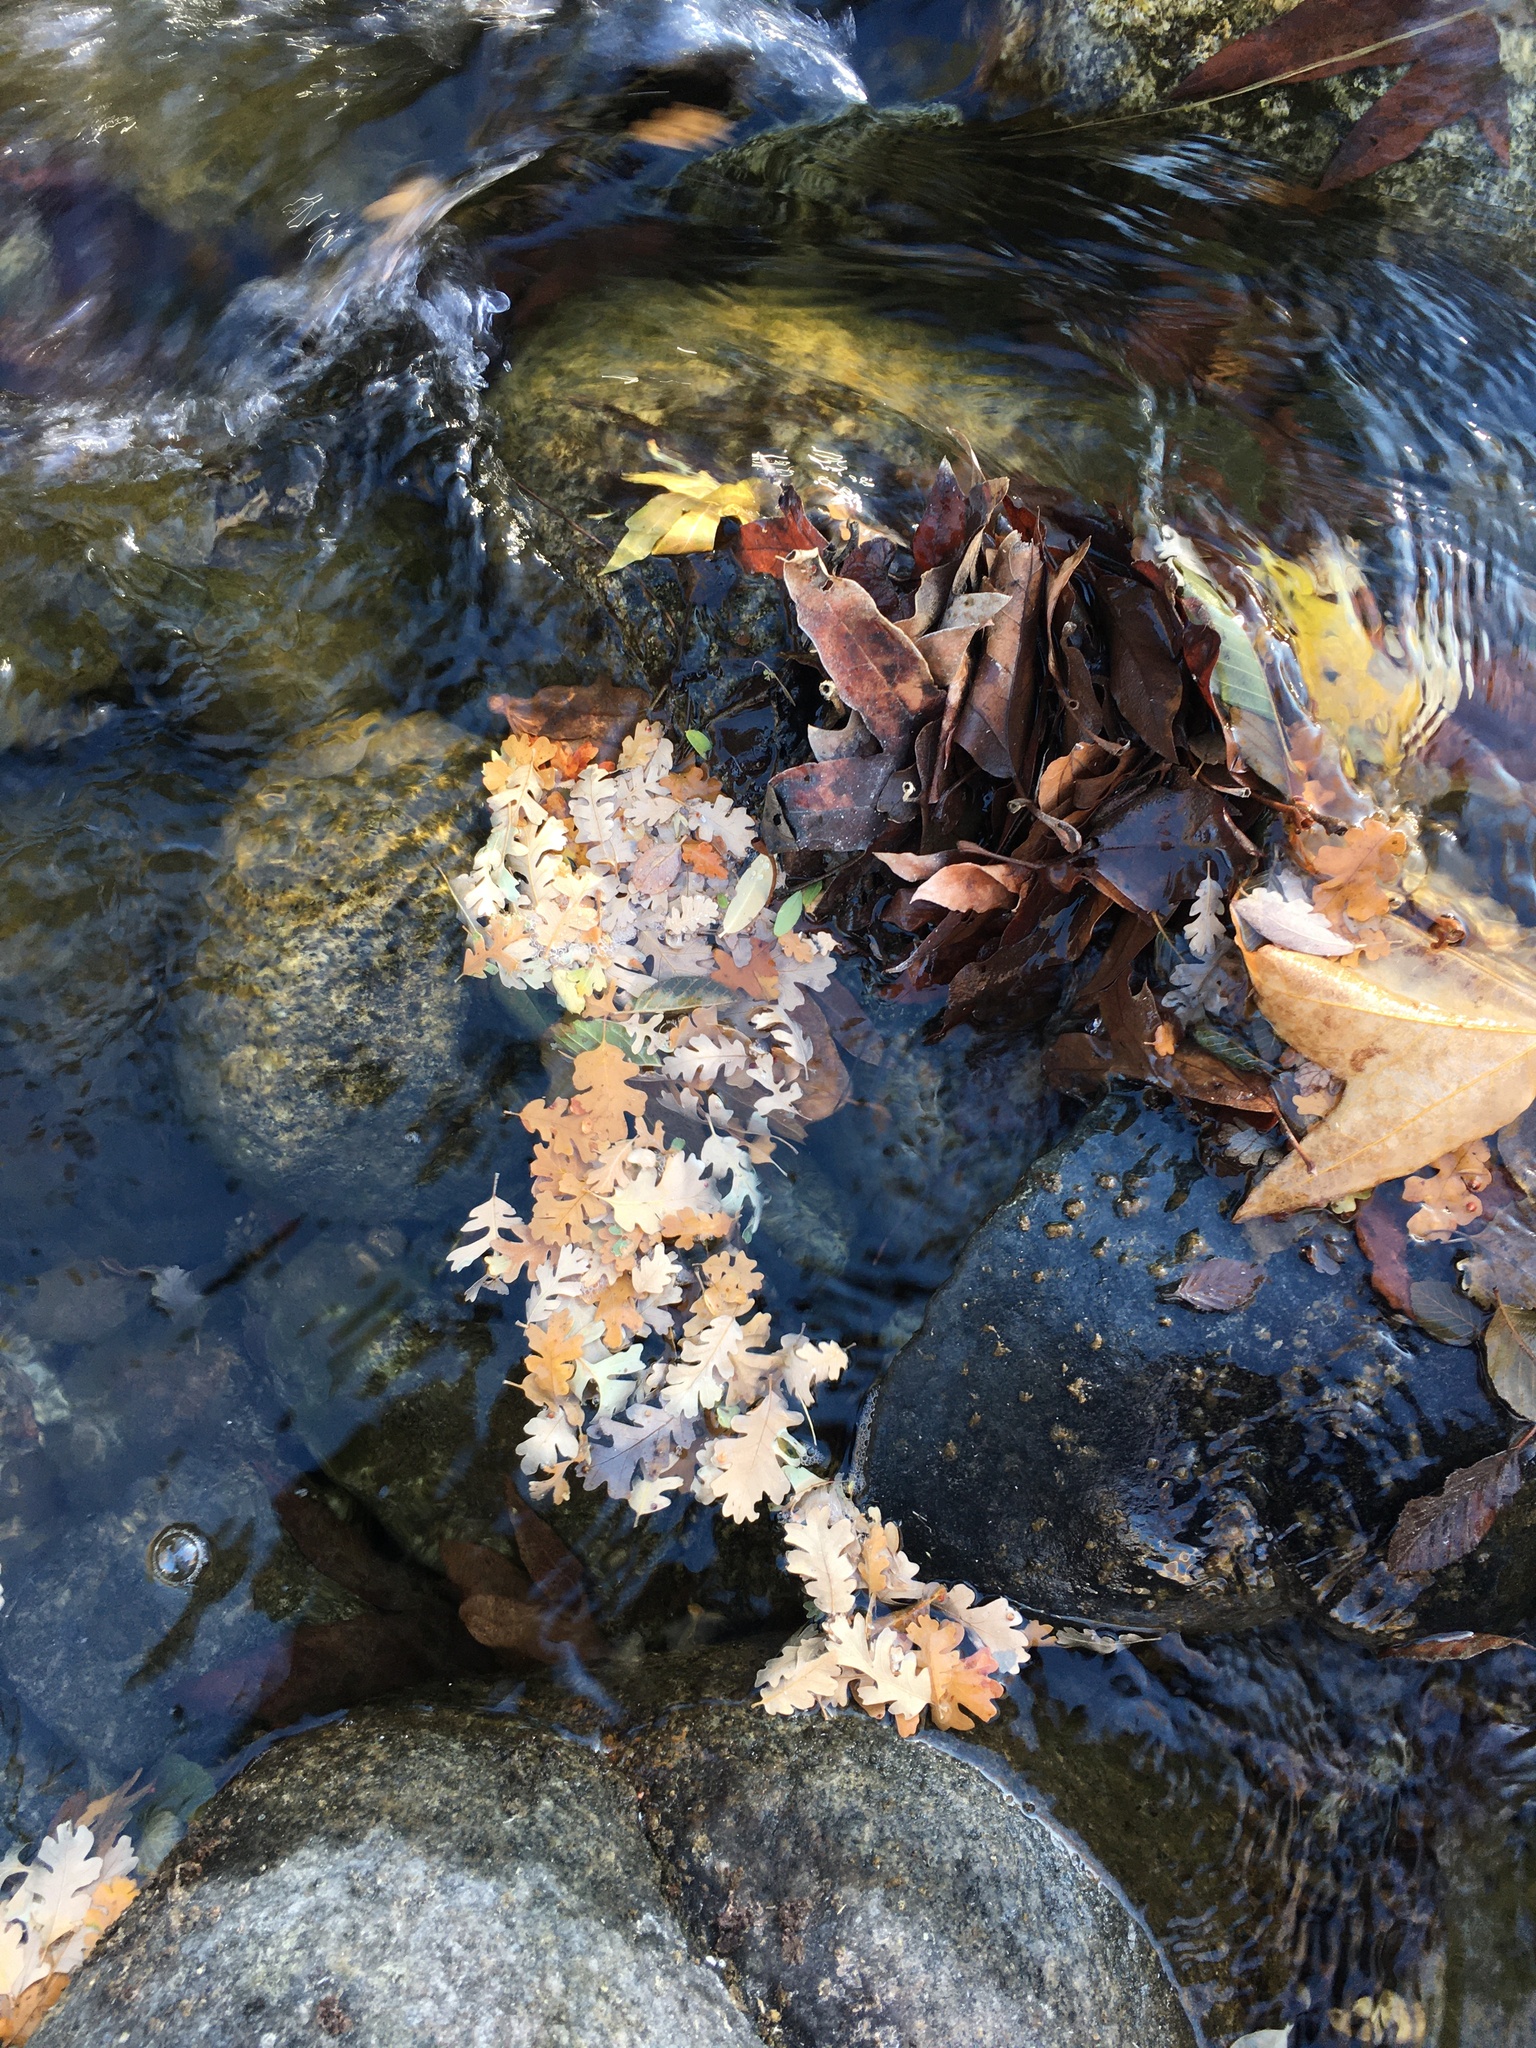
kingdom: Plantae
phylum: Tracheophyta
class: Magnoliopsida
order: Fagales
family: Fagaceae
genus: Quercus
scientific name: Quercus lobata
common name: Valley oak
